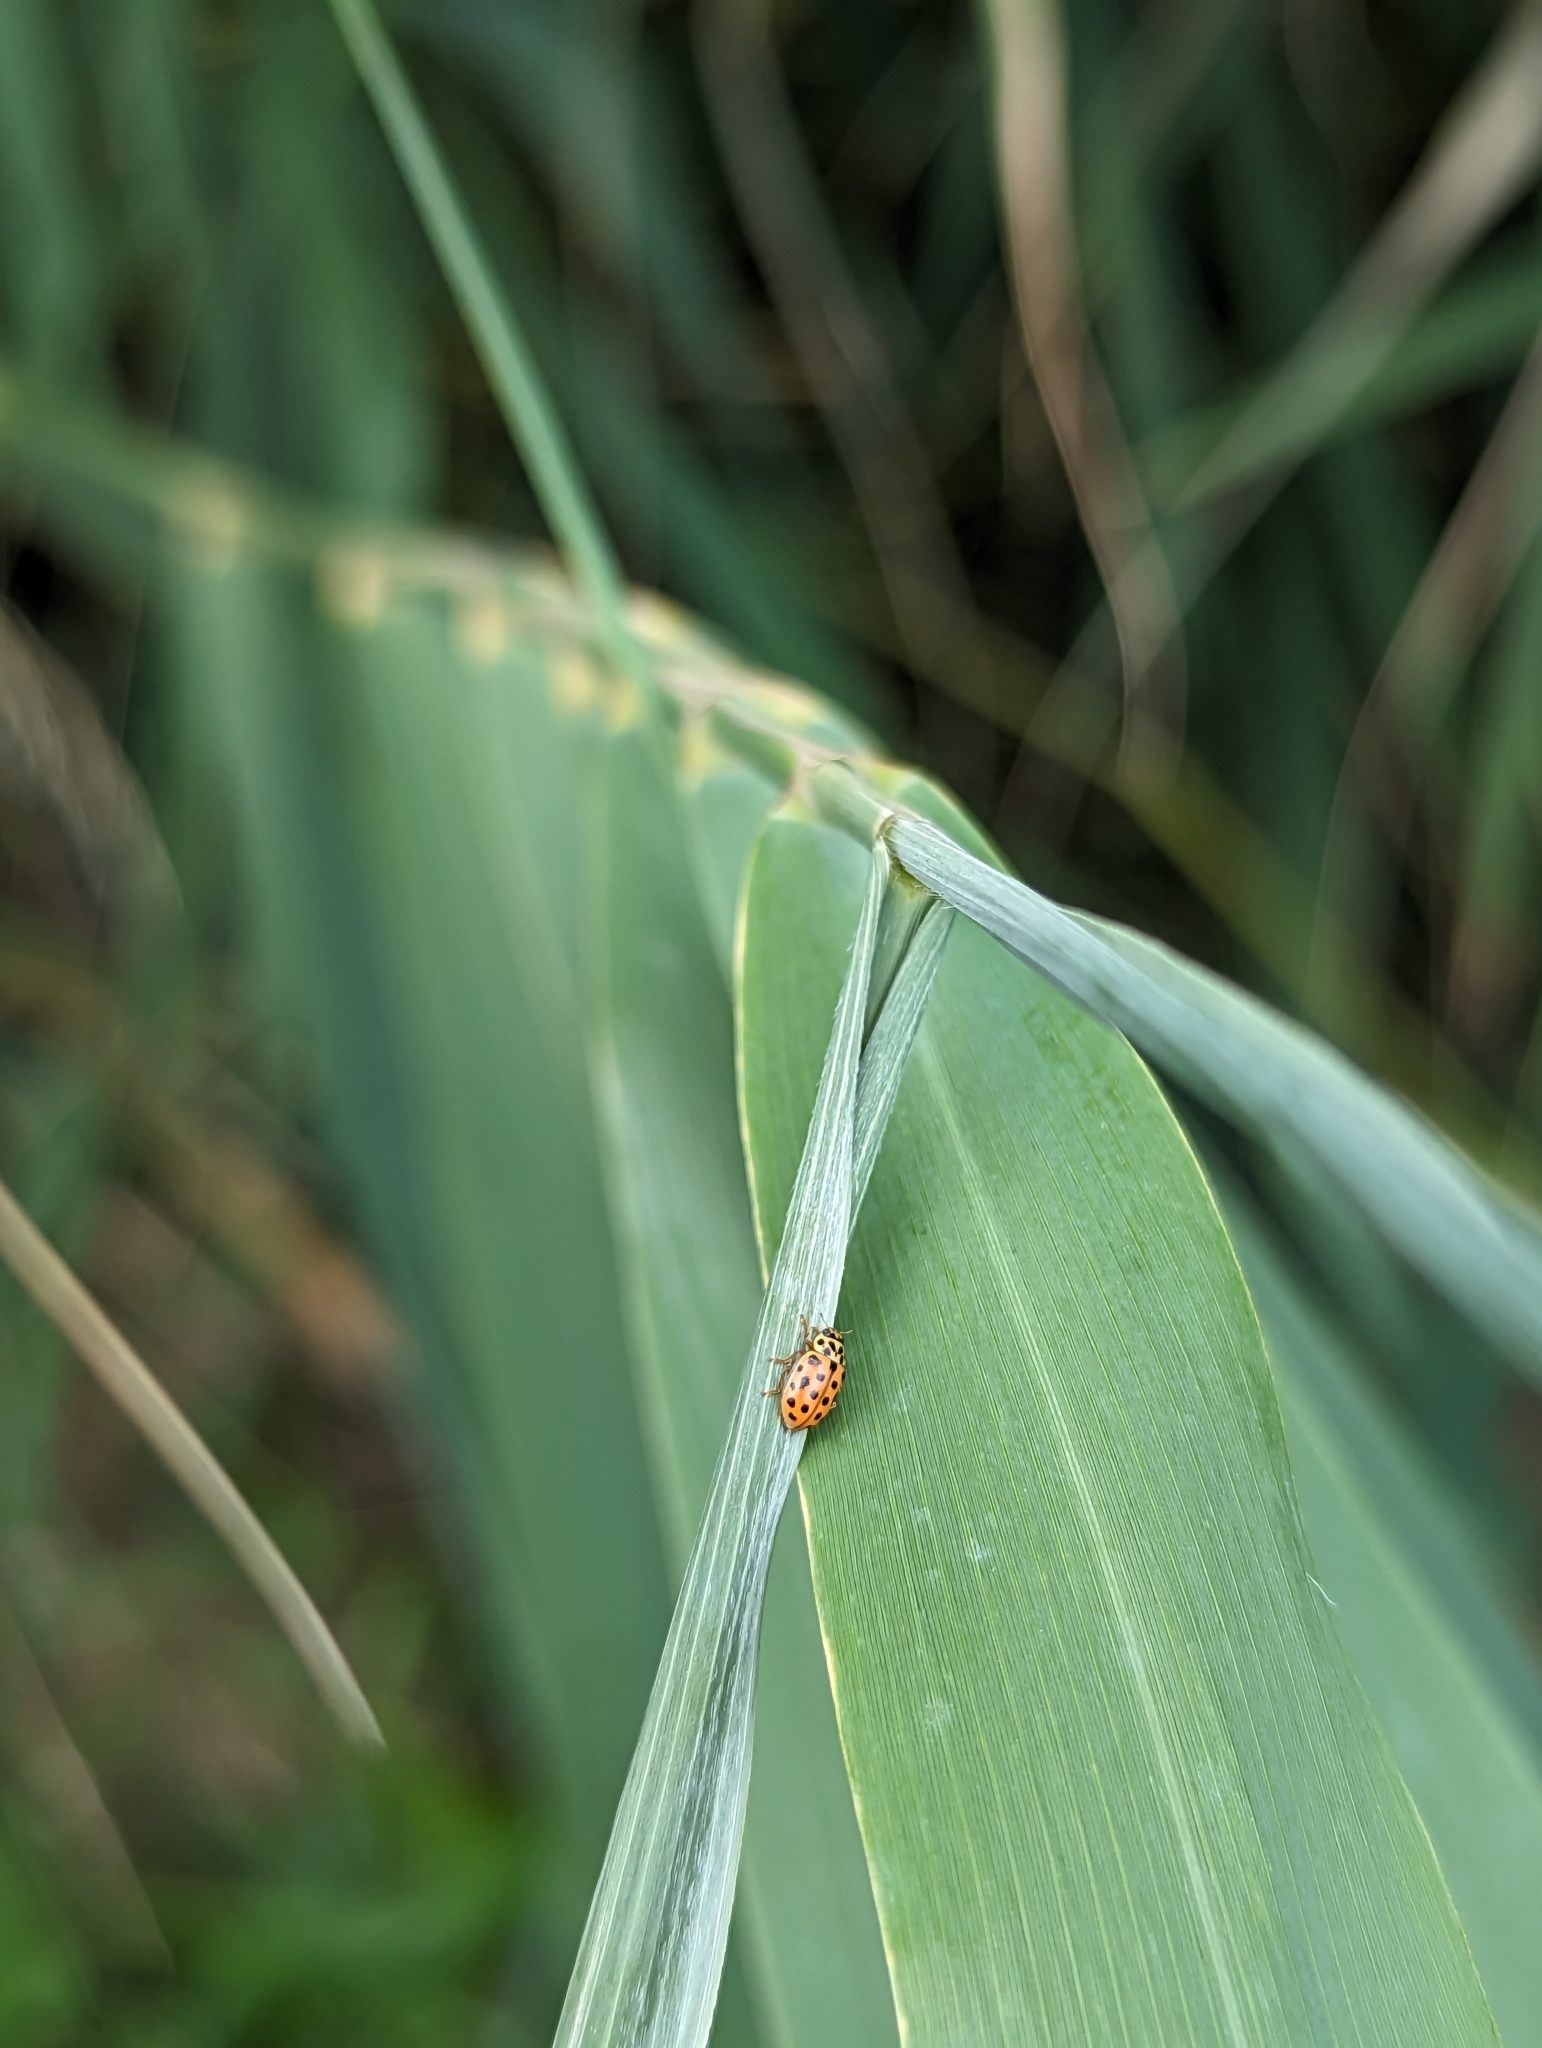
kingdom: Animalia
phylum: Arthropoda
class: Insecta
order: Coleoptera
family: Coccinellidae
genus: Anisosticta
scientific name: Anisosticta novemdecimpunctata
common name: Water ladybird
